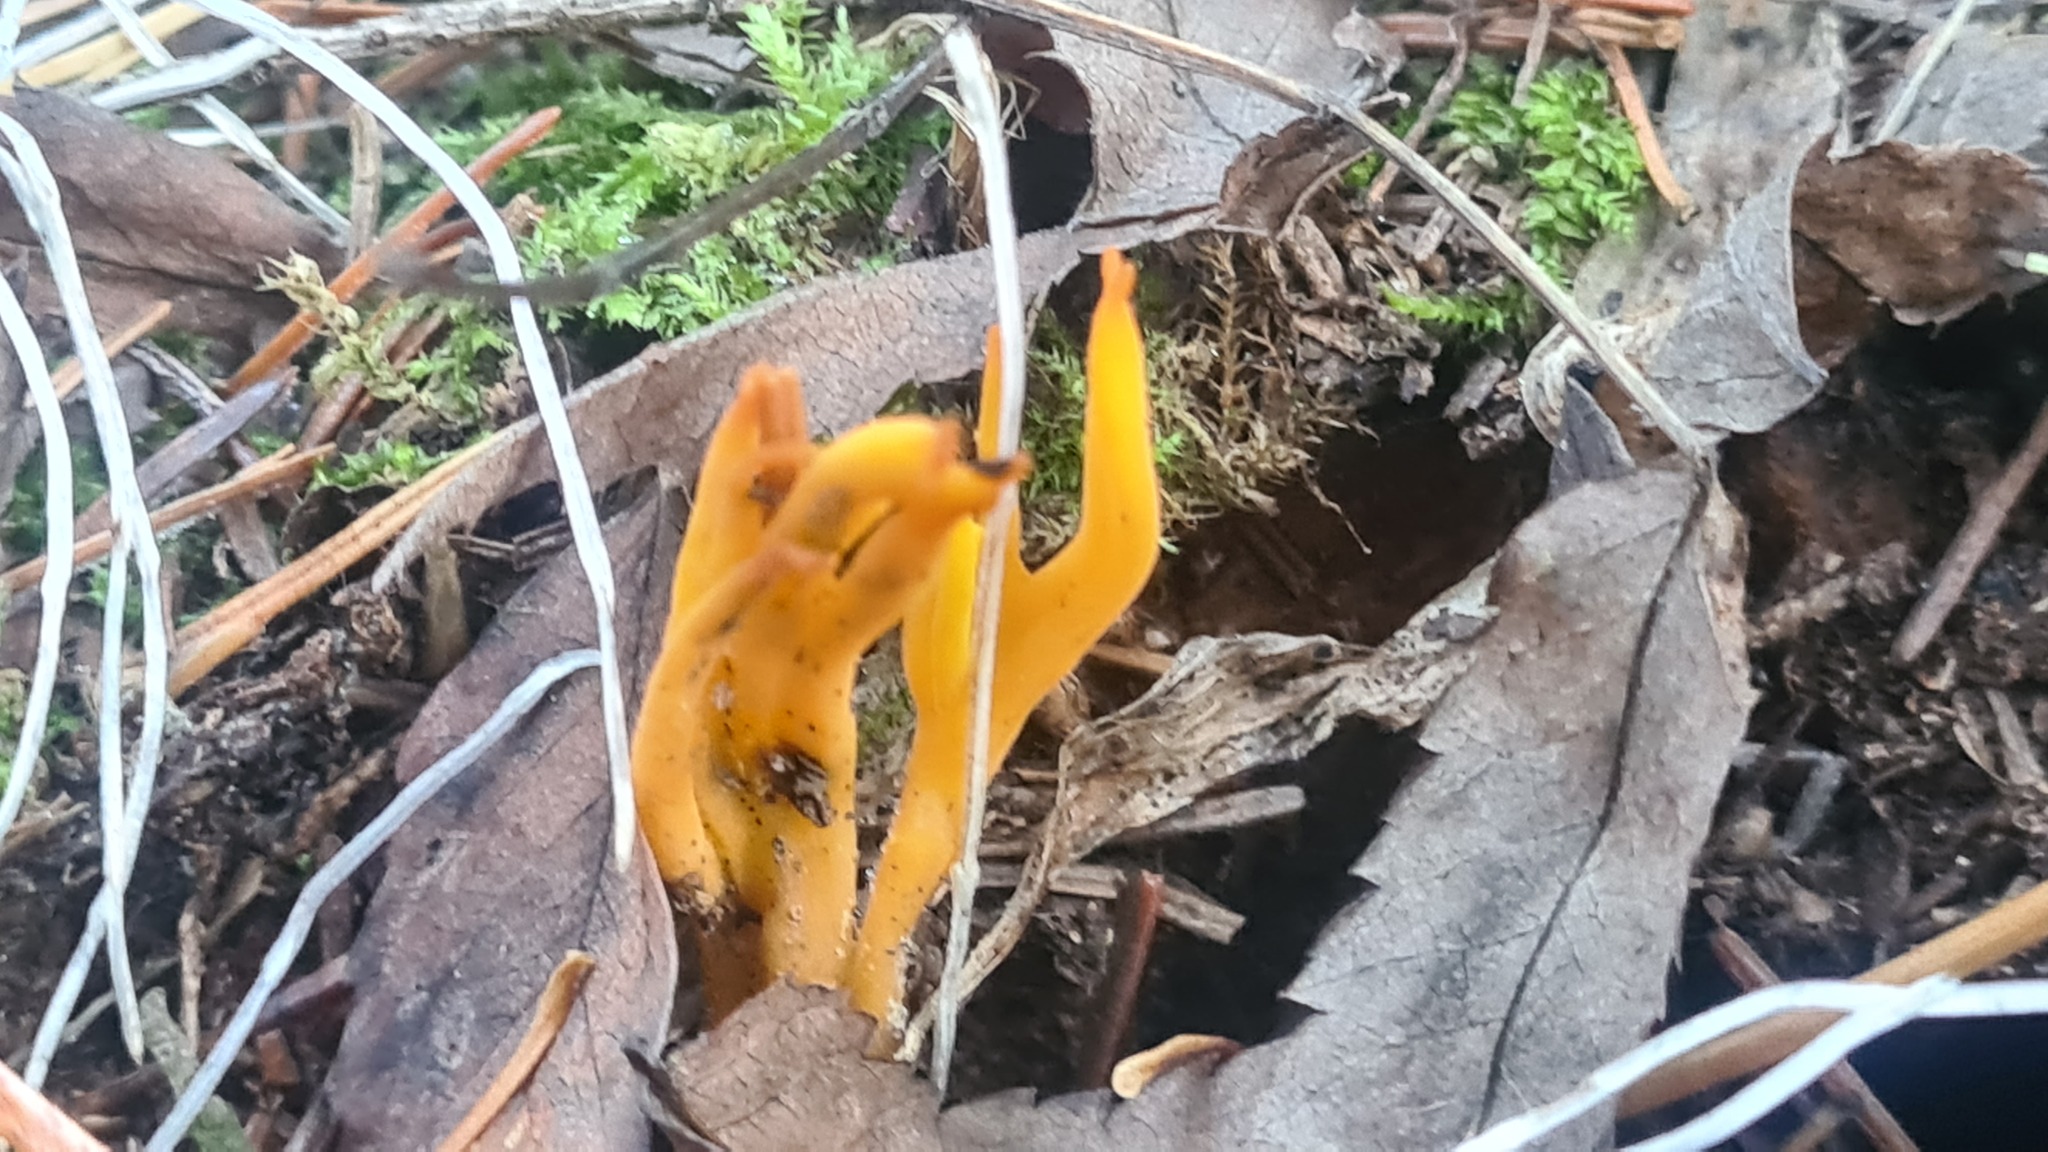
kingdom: Fungi
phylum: Basidiomycota
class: Dacrymycetes
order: Dacrymycetales
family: Dacrymycetaceae
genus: Calocera
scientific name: Calocera viscosa
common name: Yellow stagshorn
